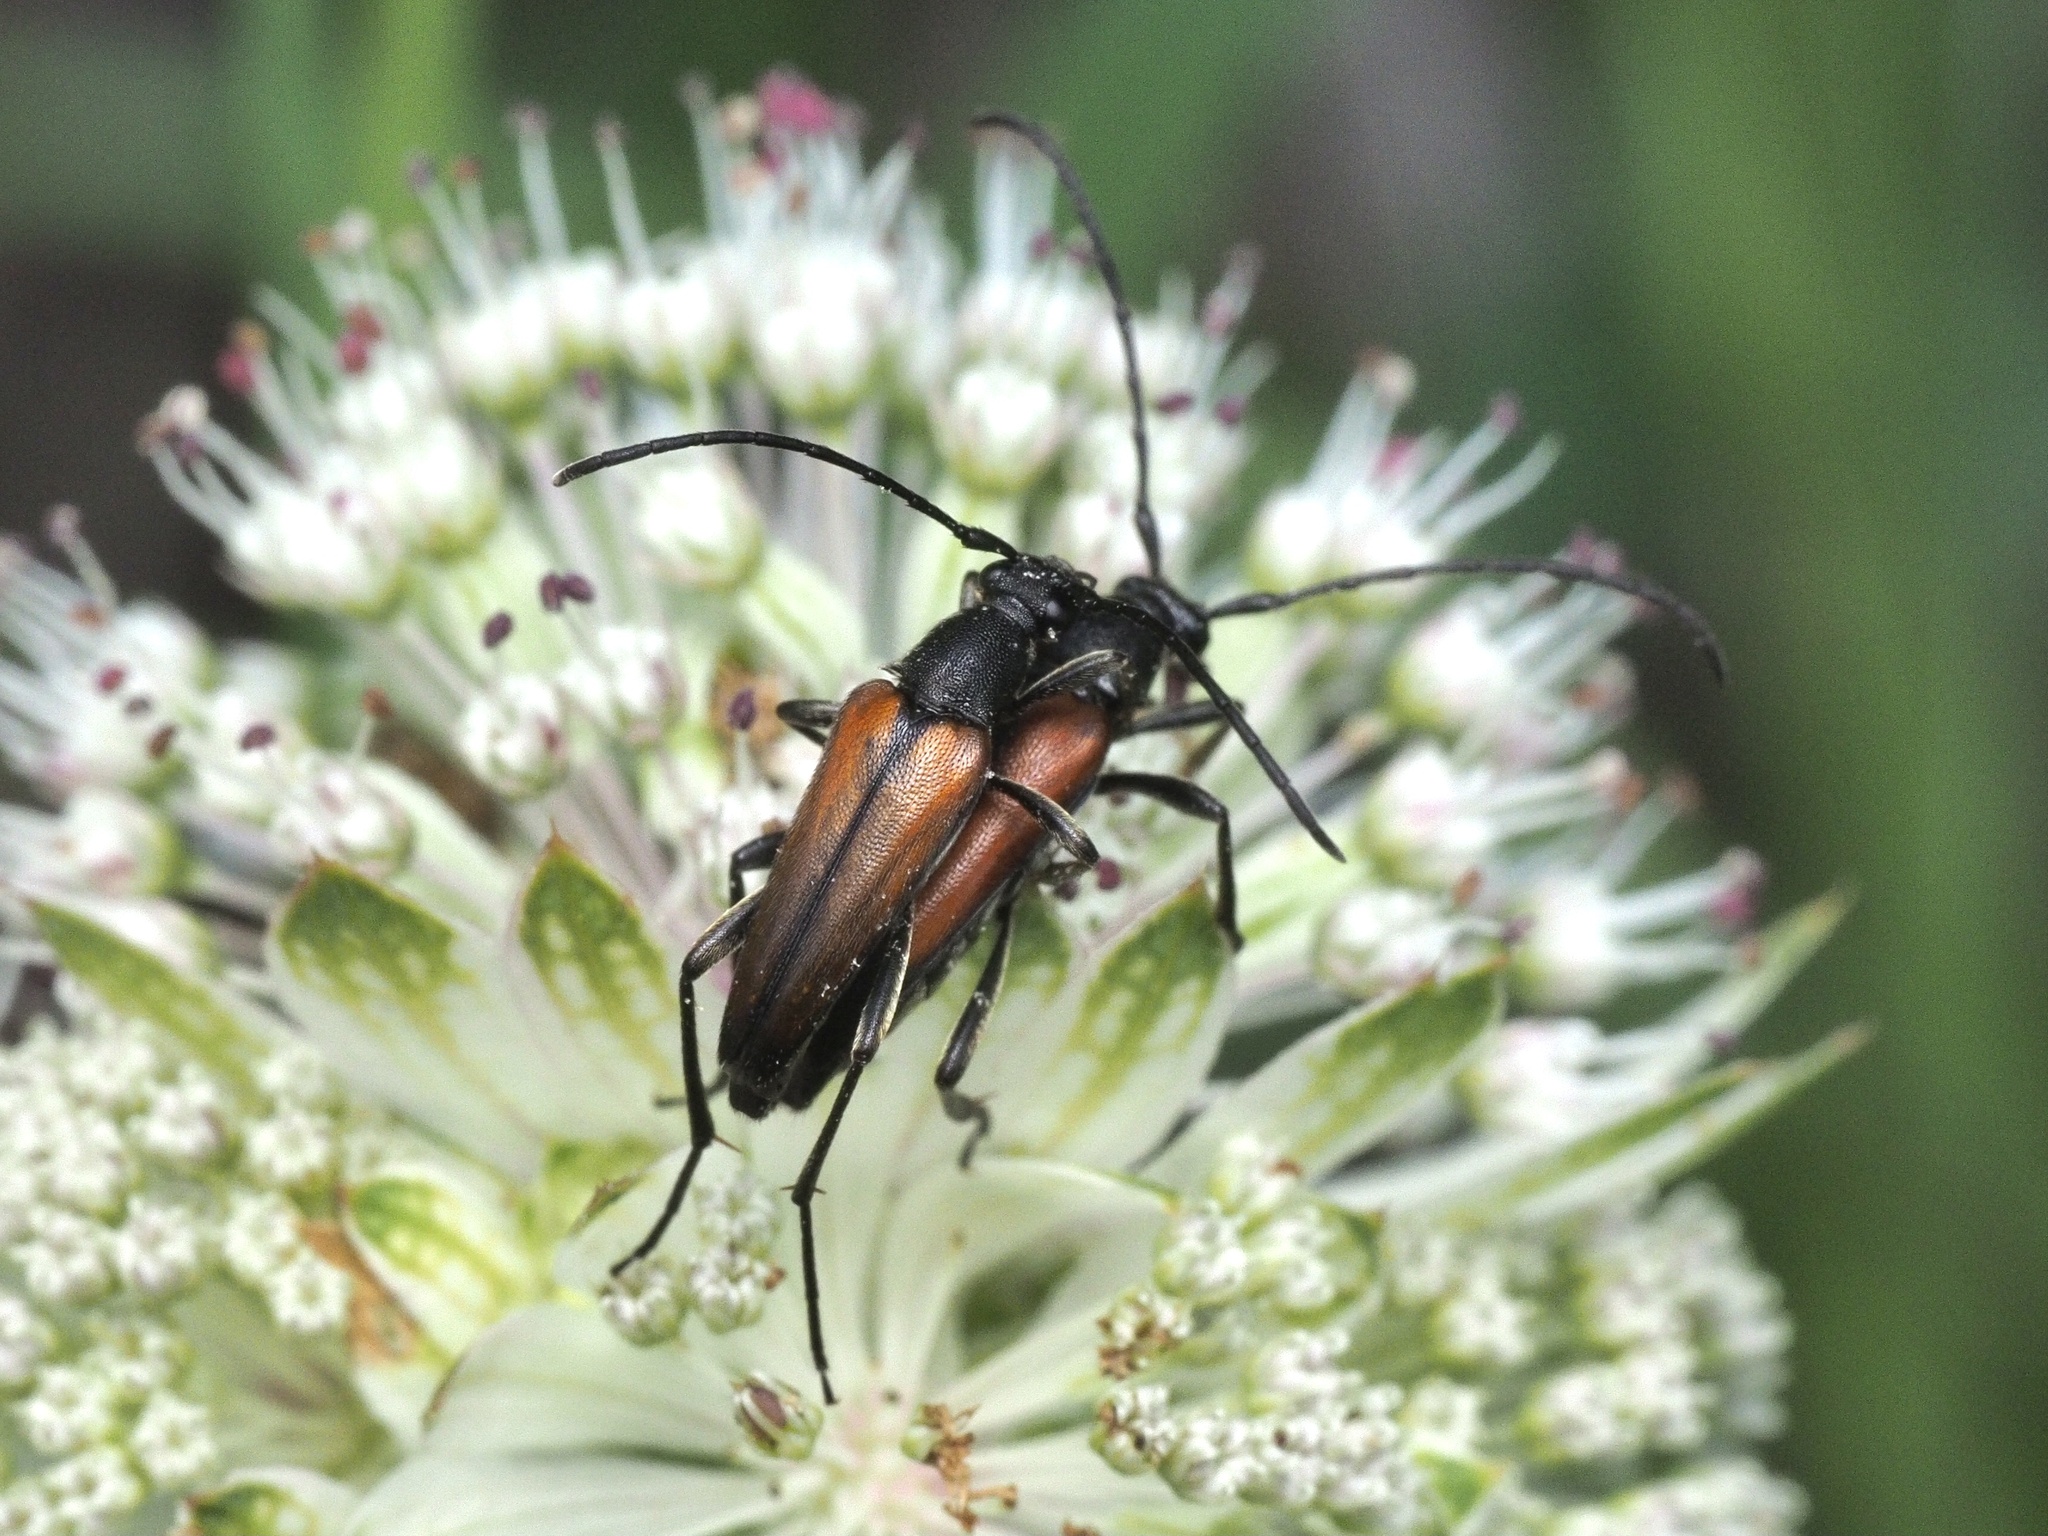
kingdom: Animalia
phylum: Arthropoda
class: Insecta
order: Coleoptera
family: Cerambycidae
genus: Stenurella
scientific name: Stenurella melanura
